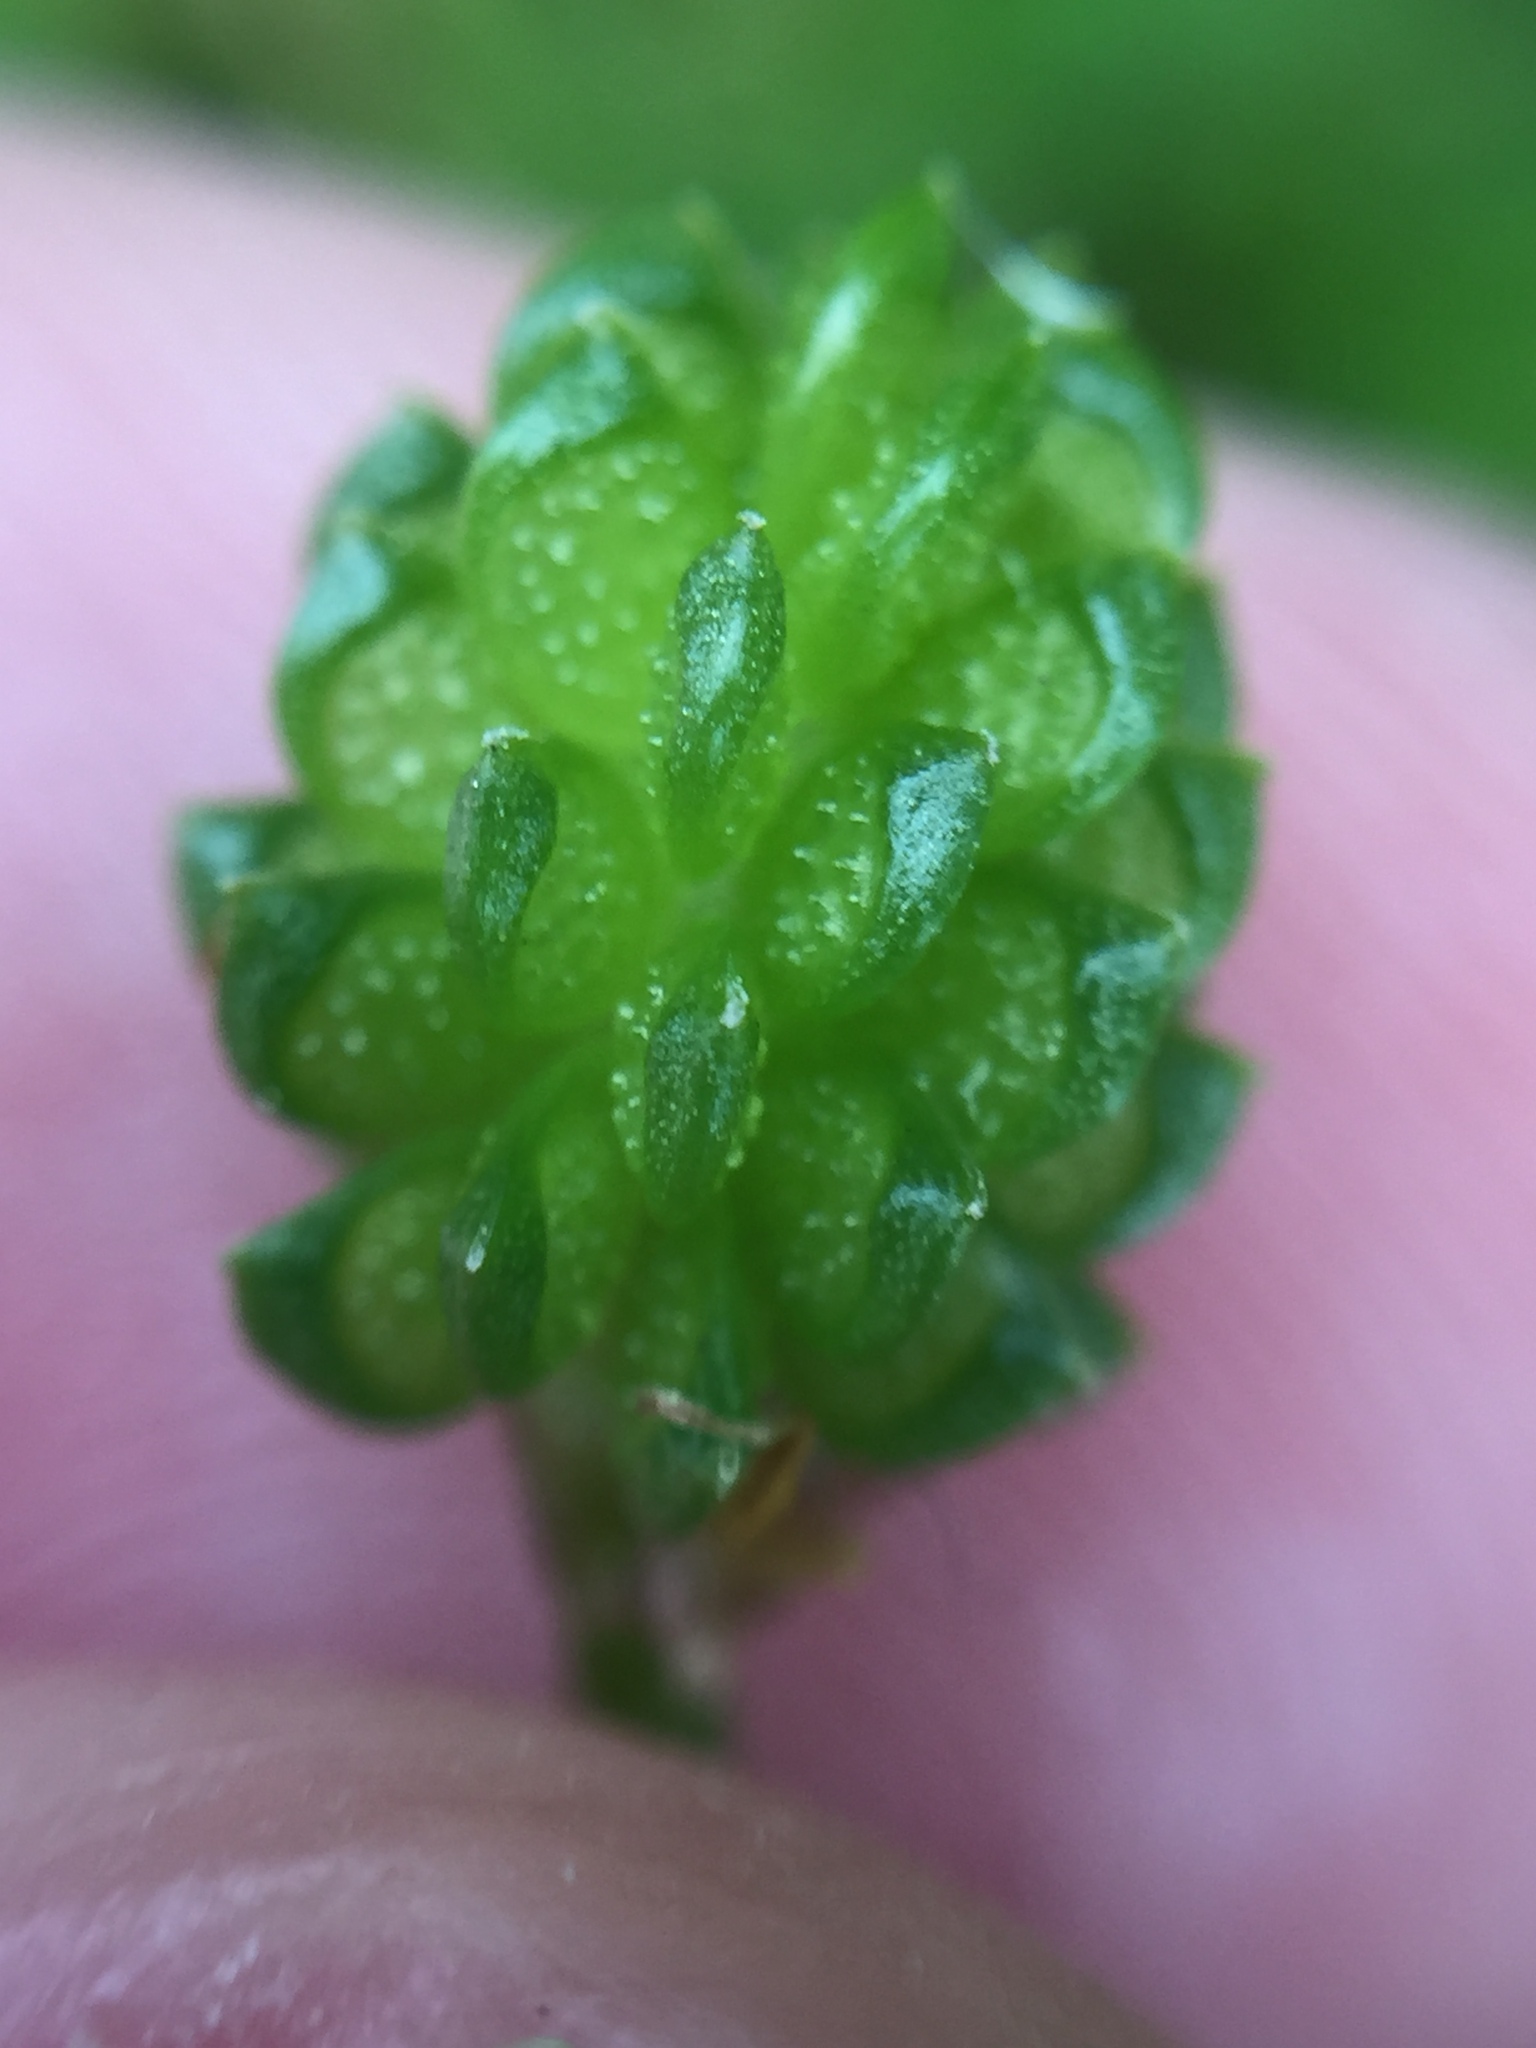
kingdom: Plantae
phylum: Tracheophyta
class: Magnoliopsida
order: Ranunculales
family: Ranunculaceae
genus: Ranunculus
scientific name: Ranunculus trilobus
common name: Threelobe buttercup
